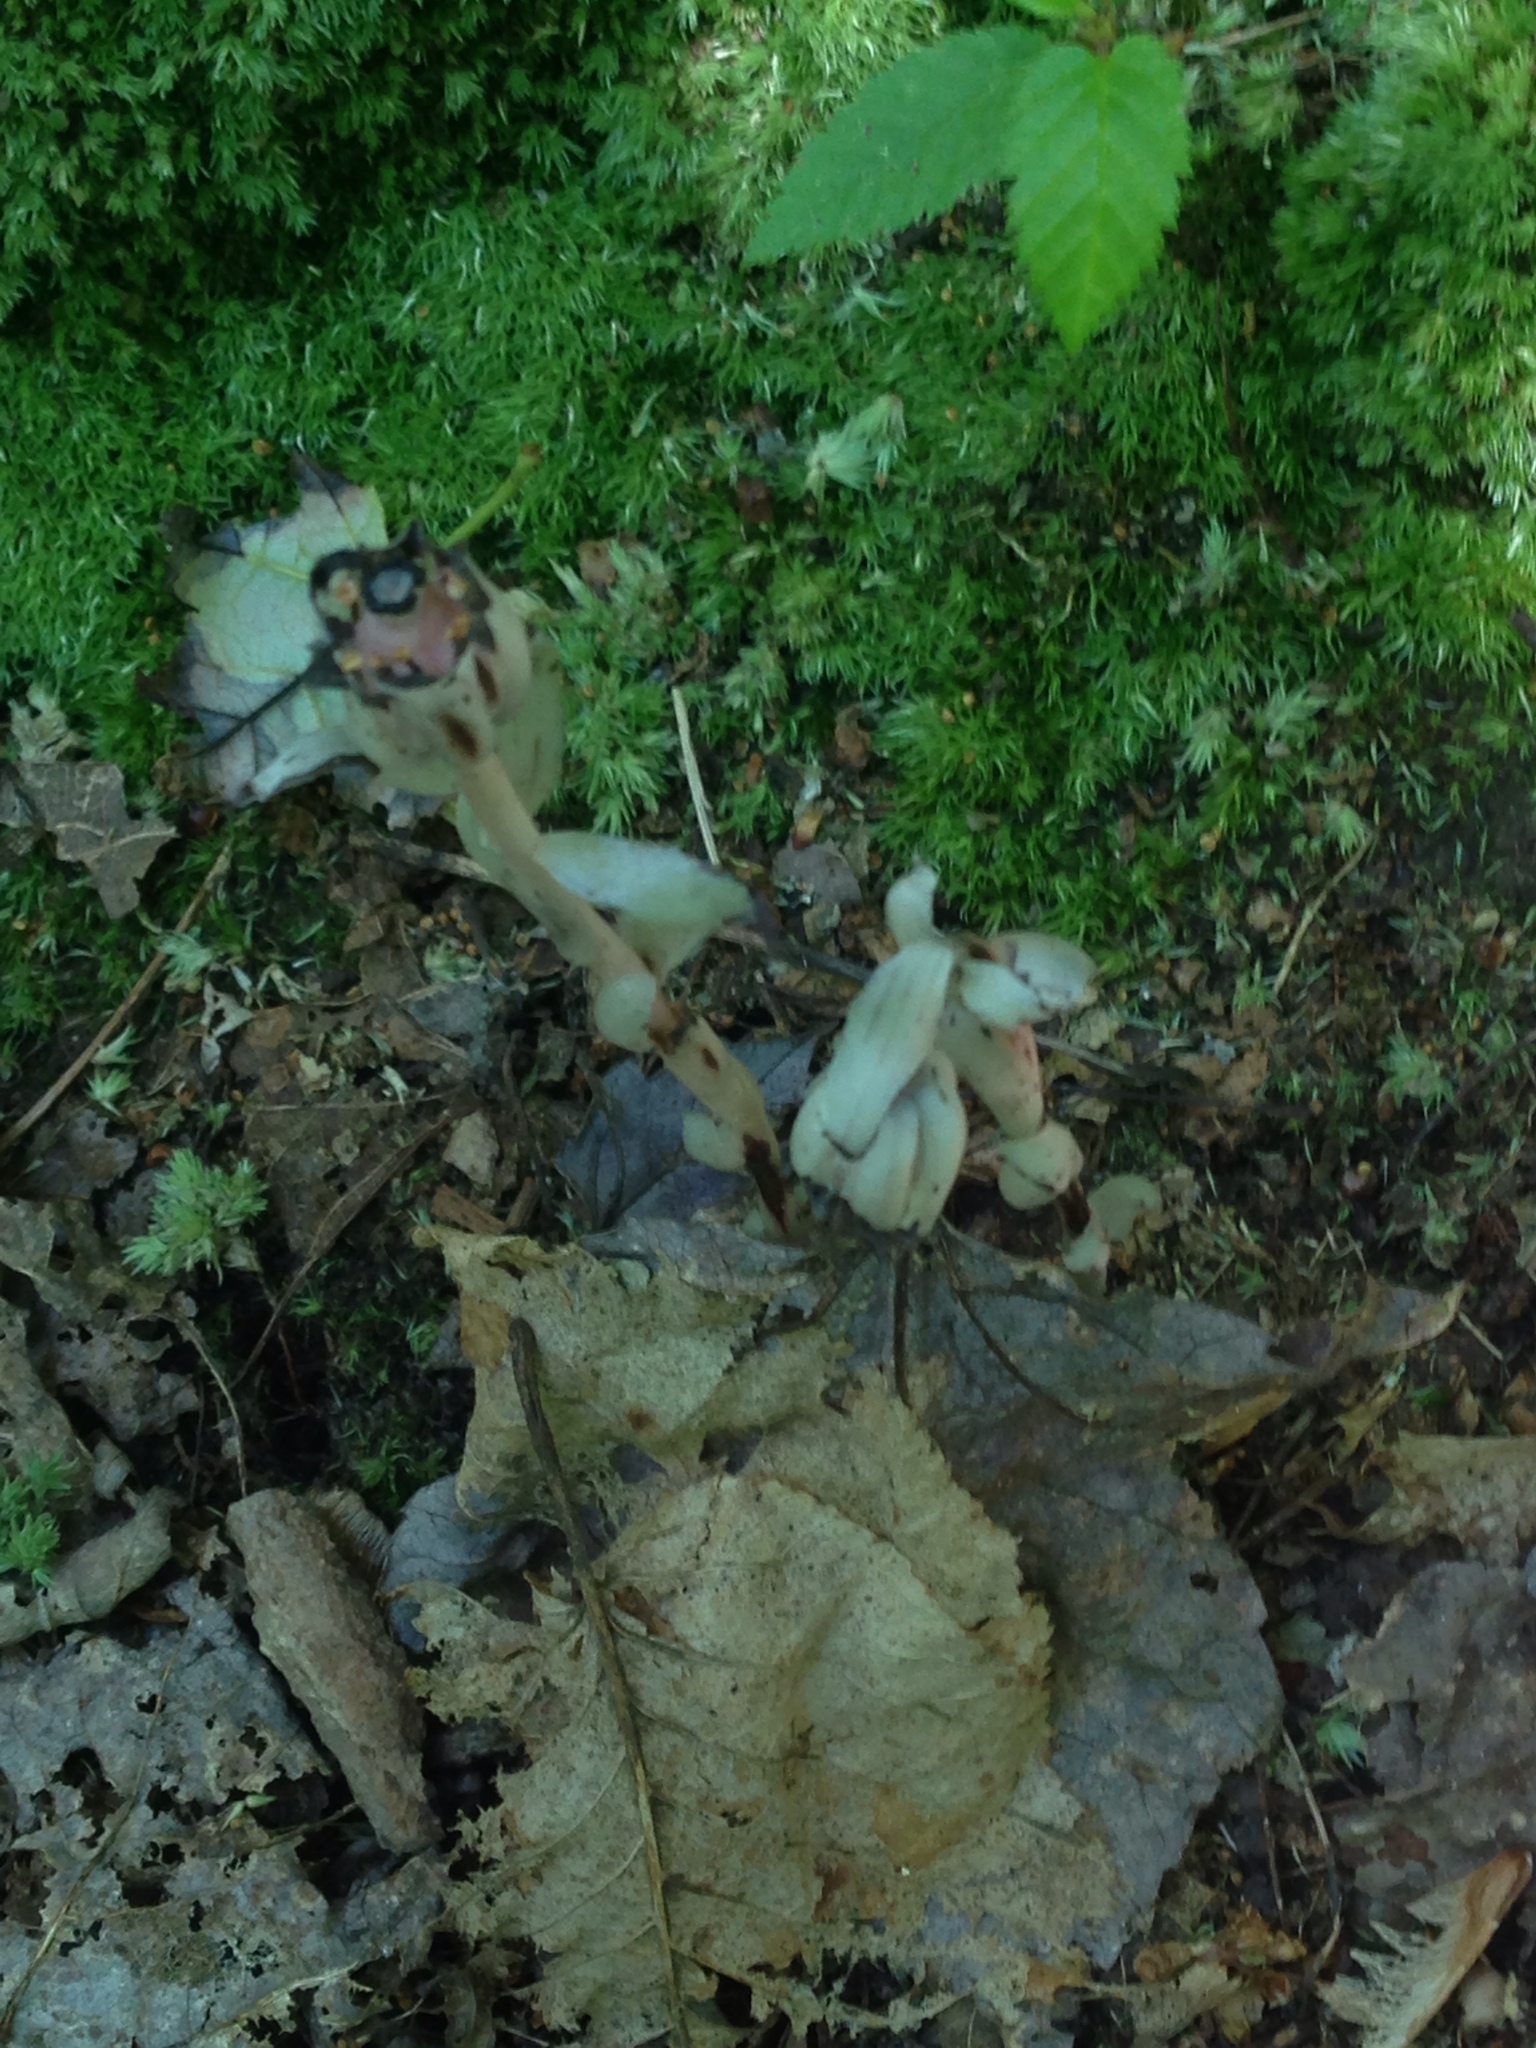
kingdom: Plantae
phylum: Tracheophyta
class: Magnoliopsida
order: Ericales
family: Ericaceae
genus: Monotropa
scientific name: Monotropa uniflora
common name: Convulsion root
